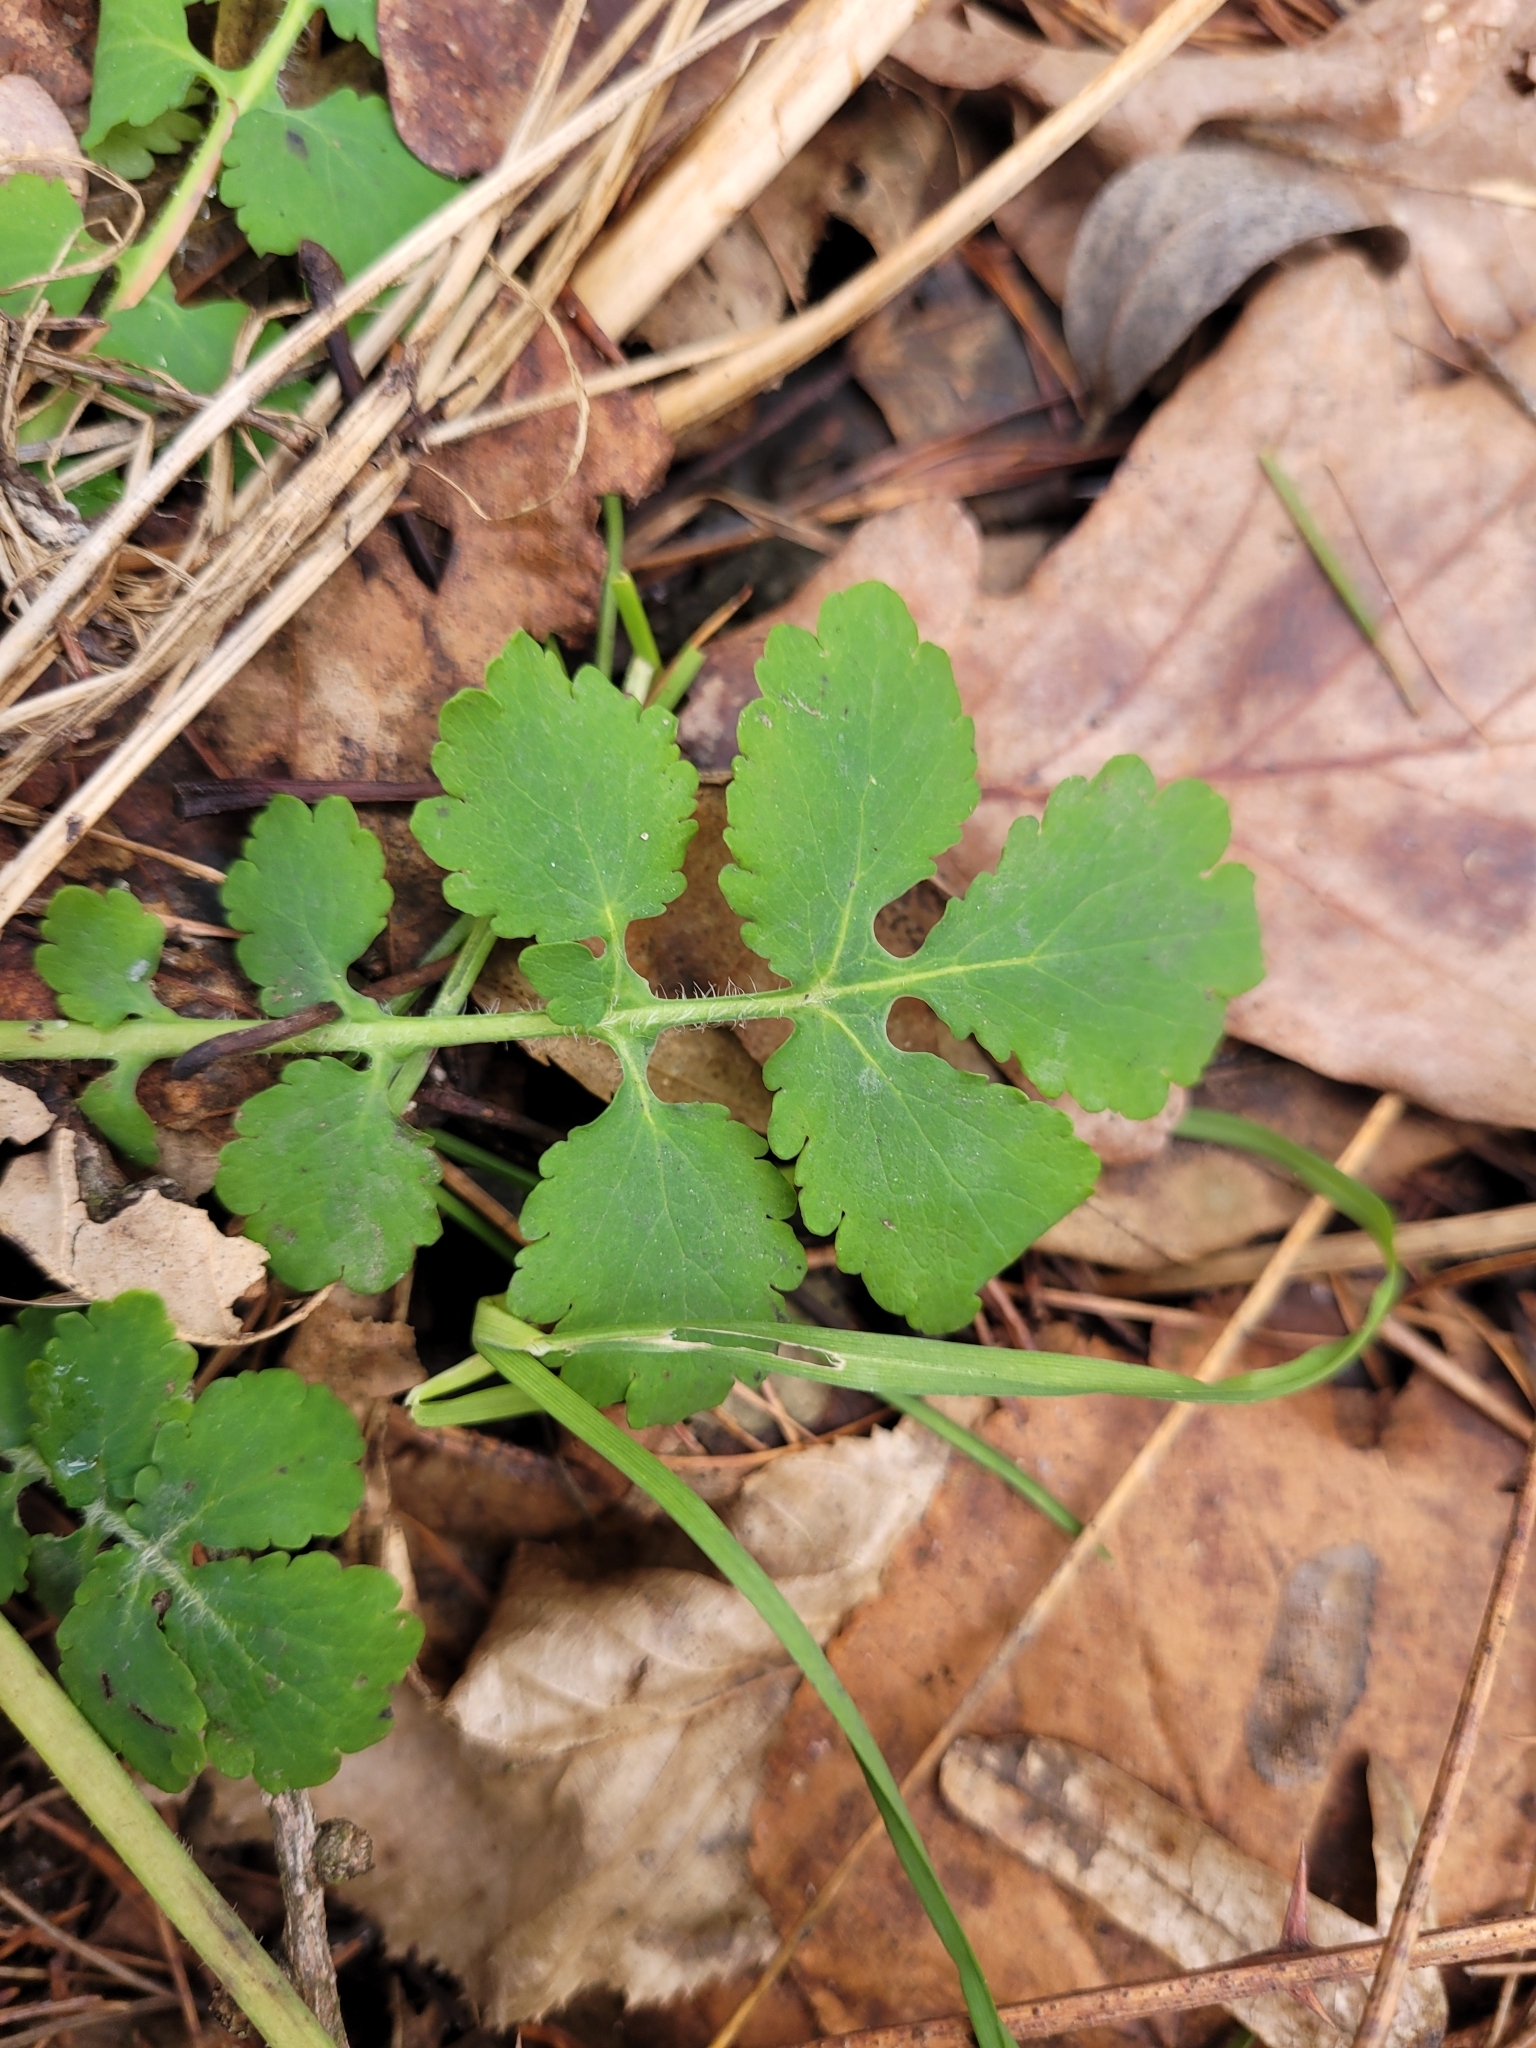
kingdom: Plantae
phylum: Tracheophyta
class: Magnoliopsida
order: Ranunculales
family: Papaveraceae
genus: Chelidonium
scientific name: Chelidonium majus
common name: Greater celandine
